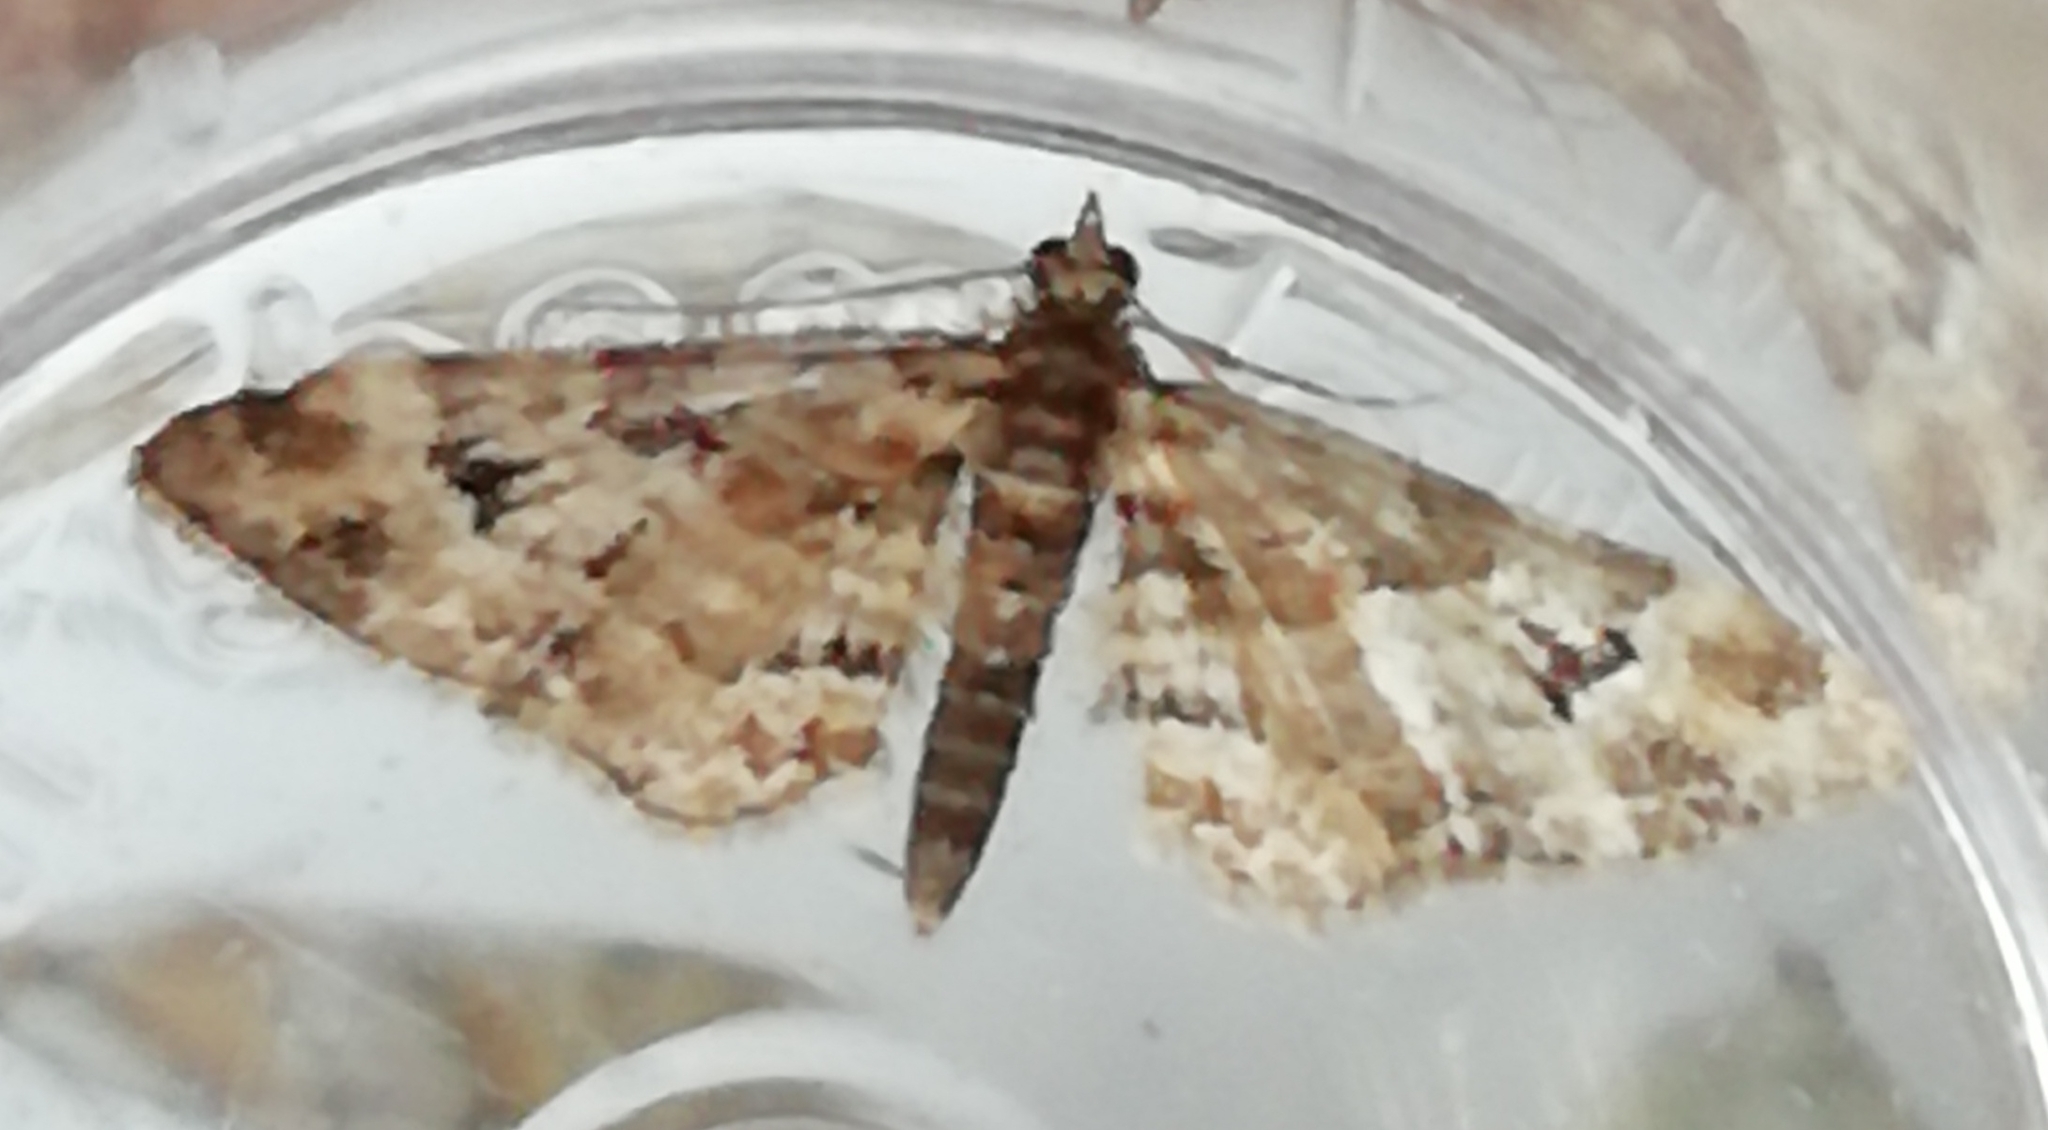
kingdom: Animalia
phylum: Arthropoda
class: Insecta
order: Lepidoptera
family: Geometridae
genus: Gymnoscelis
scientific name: Gymnoscelis rufifasciata
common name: Double-striped pug
